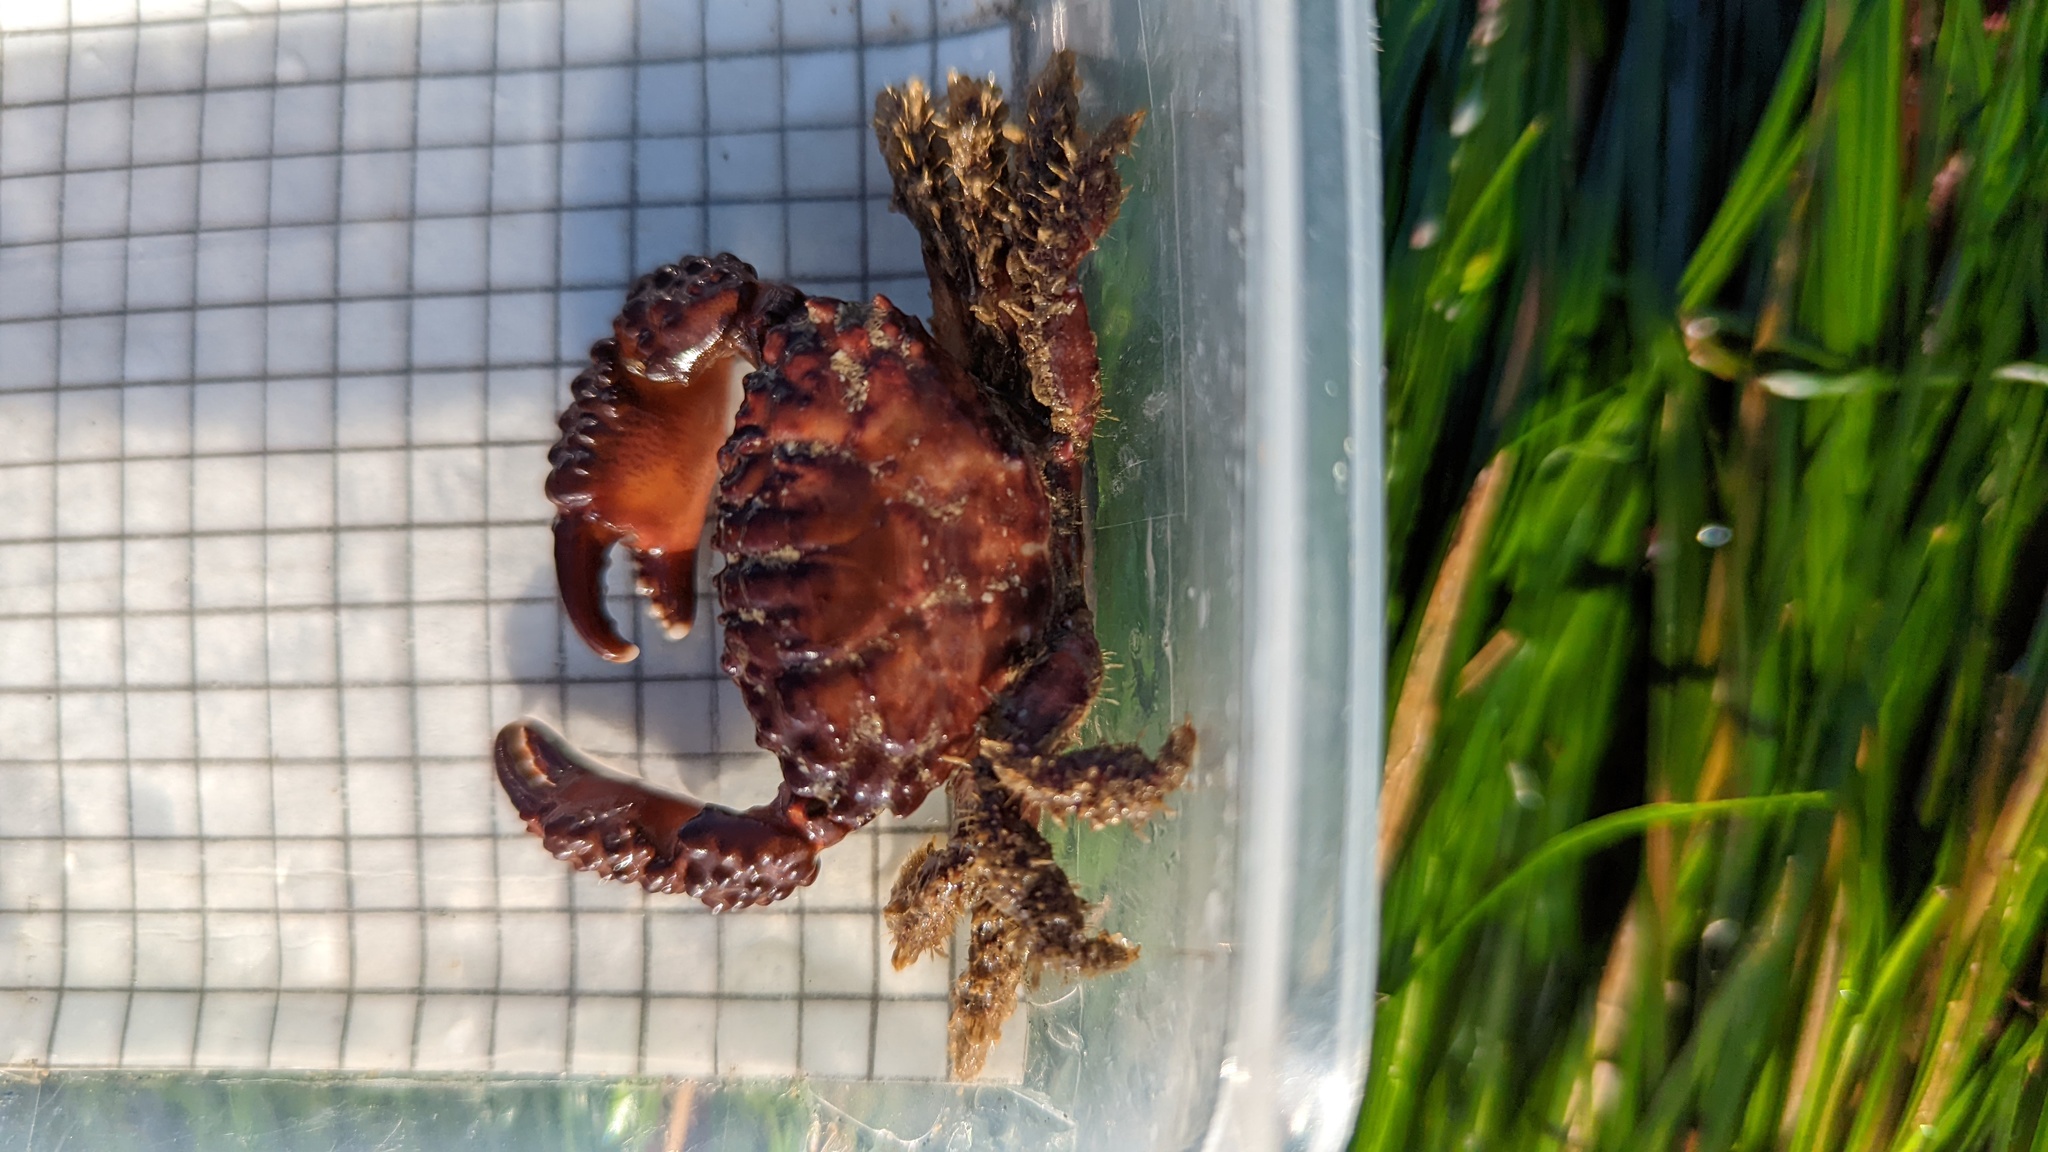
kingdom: Animalia
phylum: Arthropoda
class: Malacostraca
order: Decapoda
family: Xanthidae
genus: Paraxanthias
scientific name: Paraxanthias taylori
